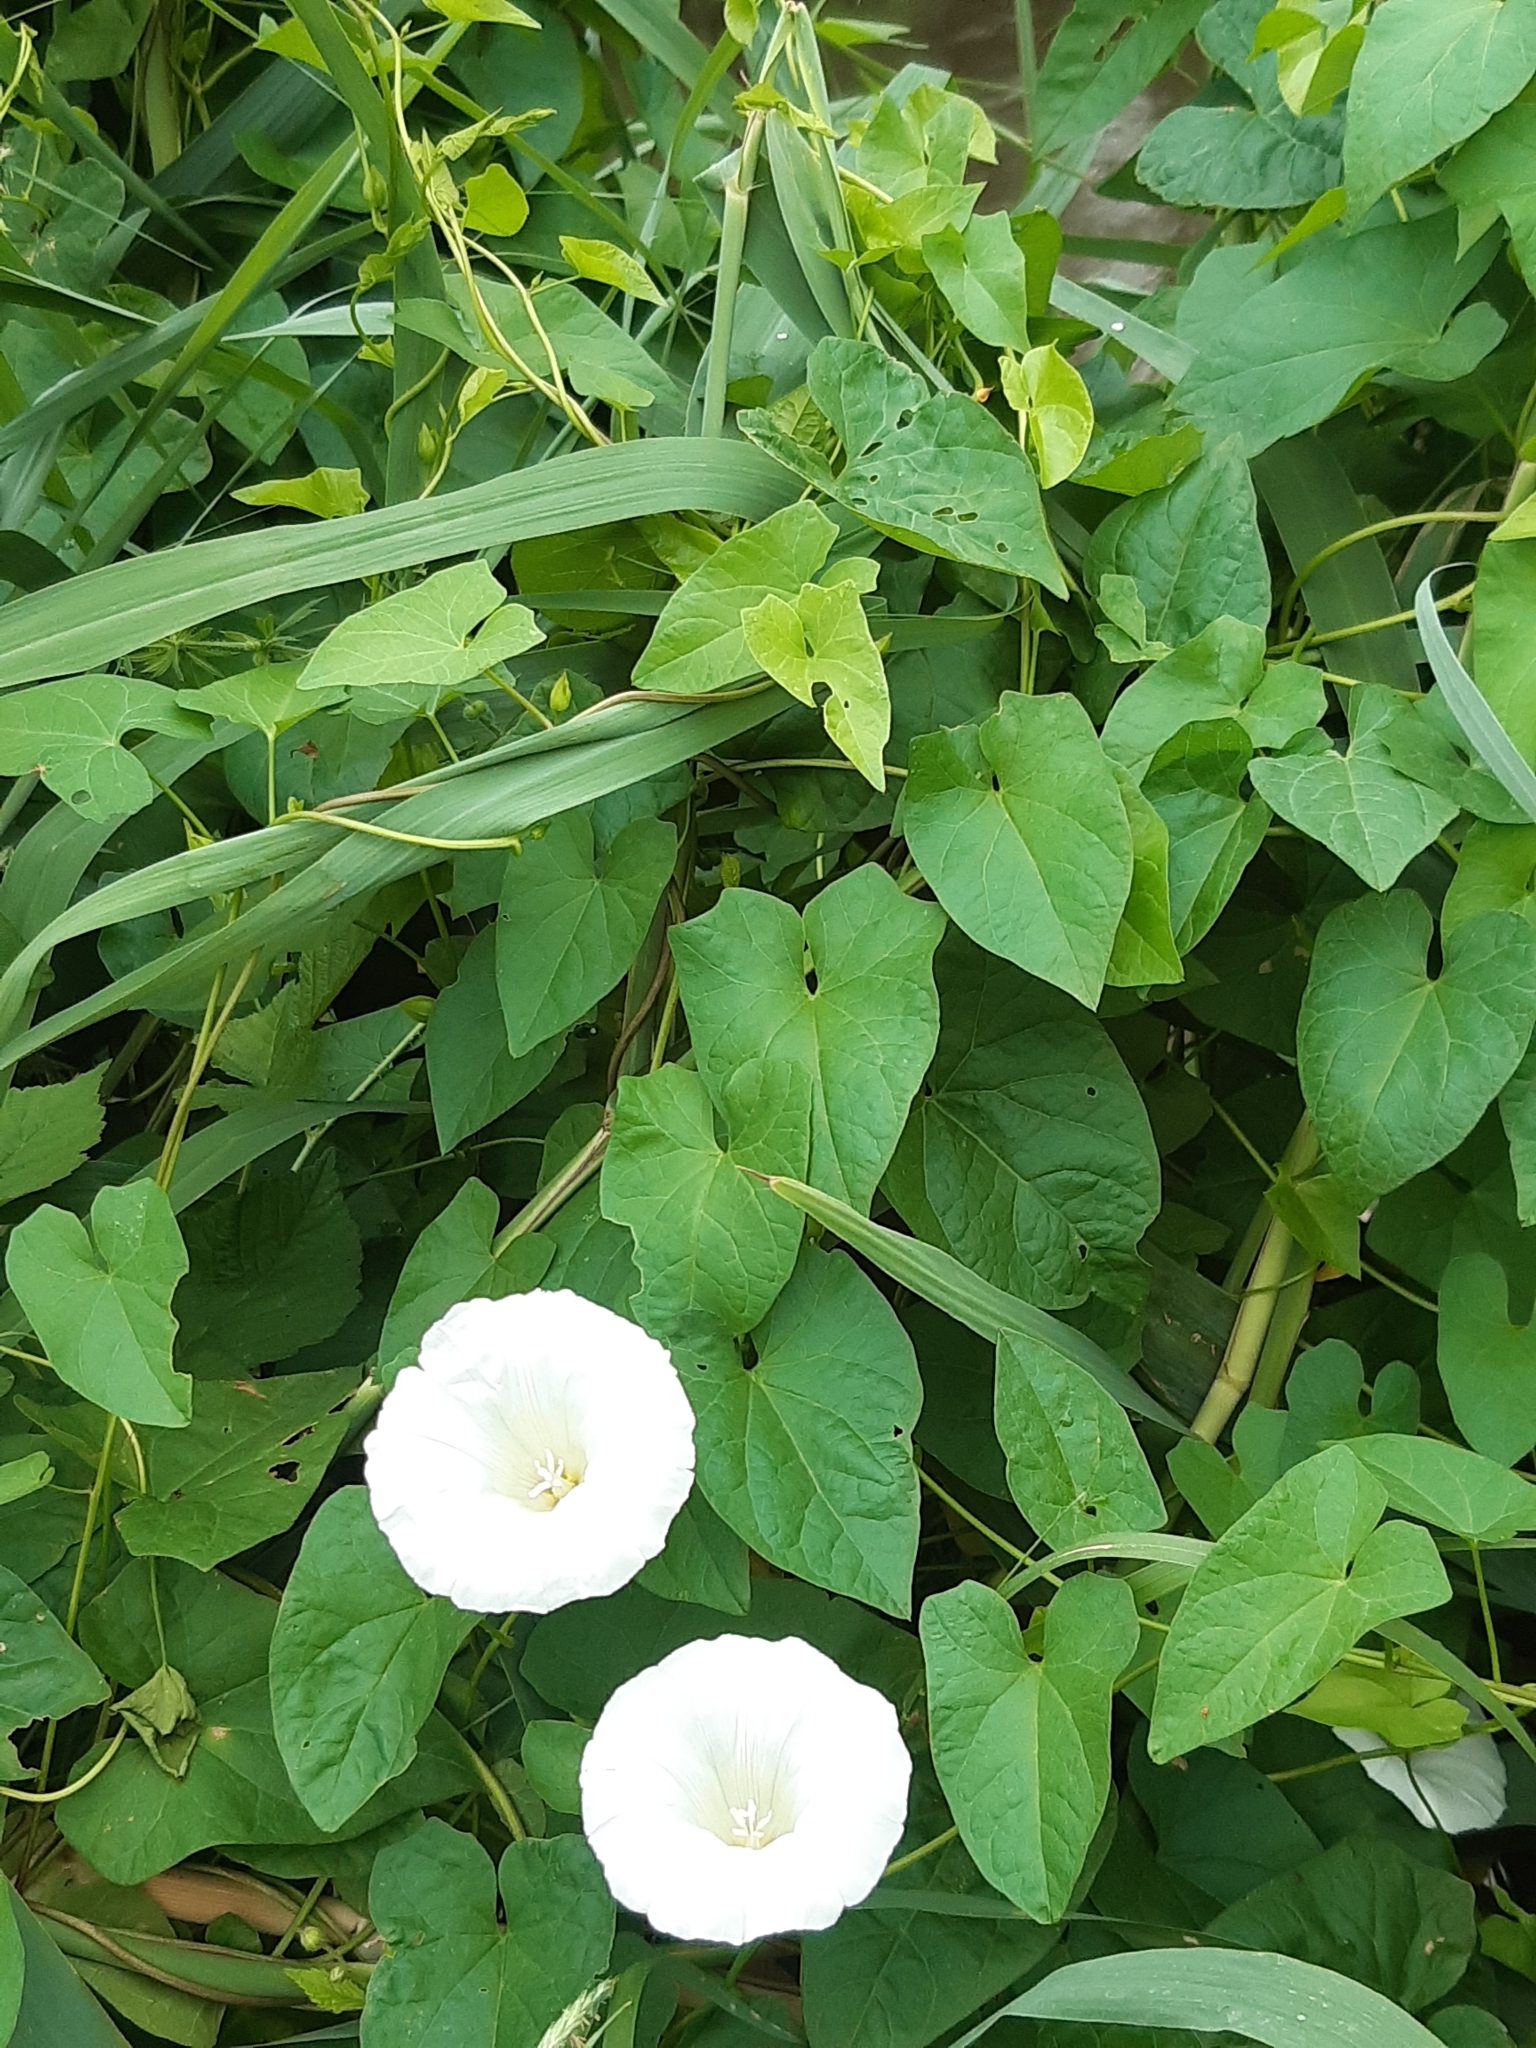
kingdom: Plantae
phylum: Tracheophyta
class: Magnoliopsida
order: Solanales
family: Convolvulaceae
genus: Calystegia
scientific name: Calystegia sepium
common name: Hedge bindweed
